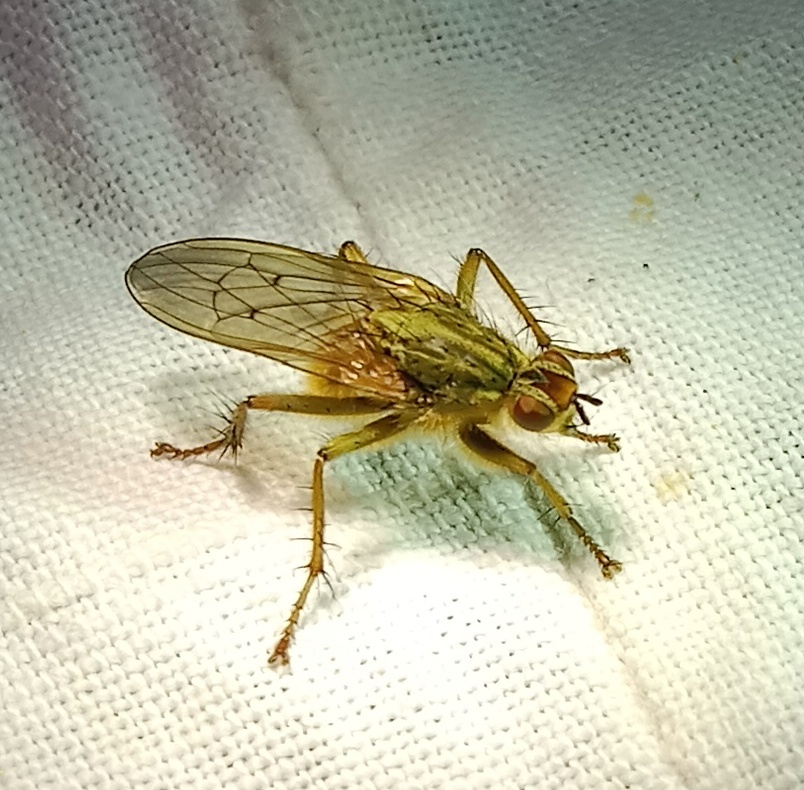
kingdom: Animalia
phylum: Arthropoda
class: Insecta
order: Diptera
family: Scathophagidae
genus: Scathophaga
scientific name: Scathophaga stercoraria
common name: Yellow dung fly
